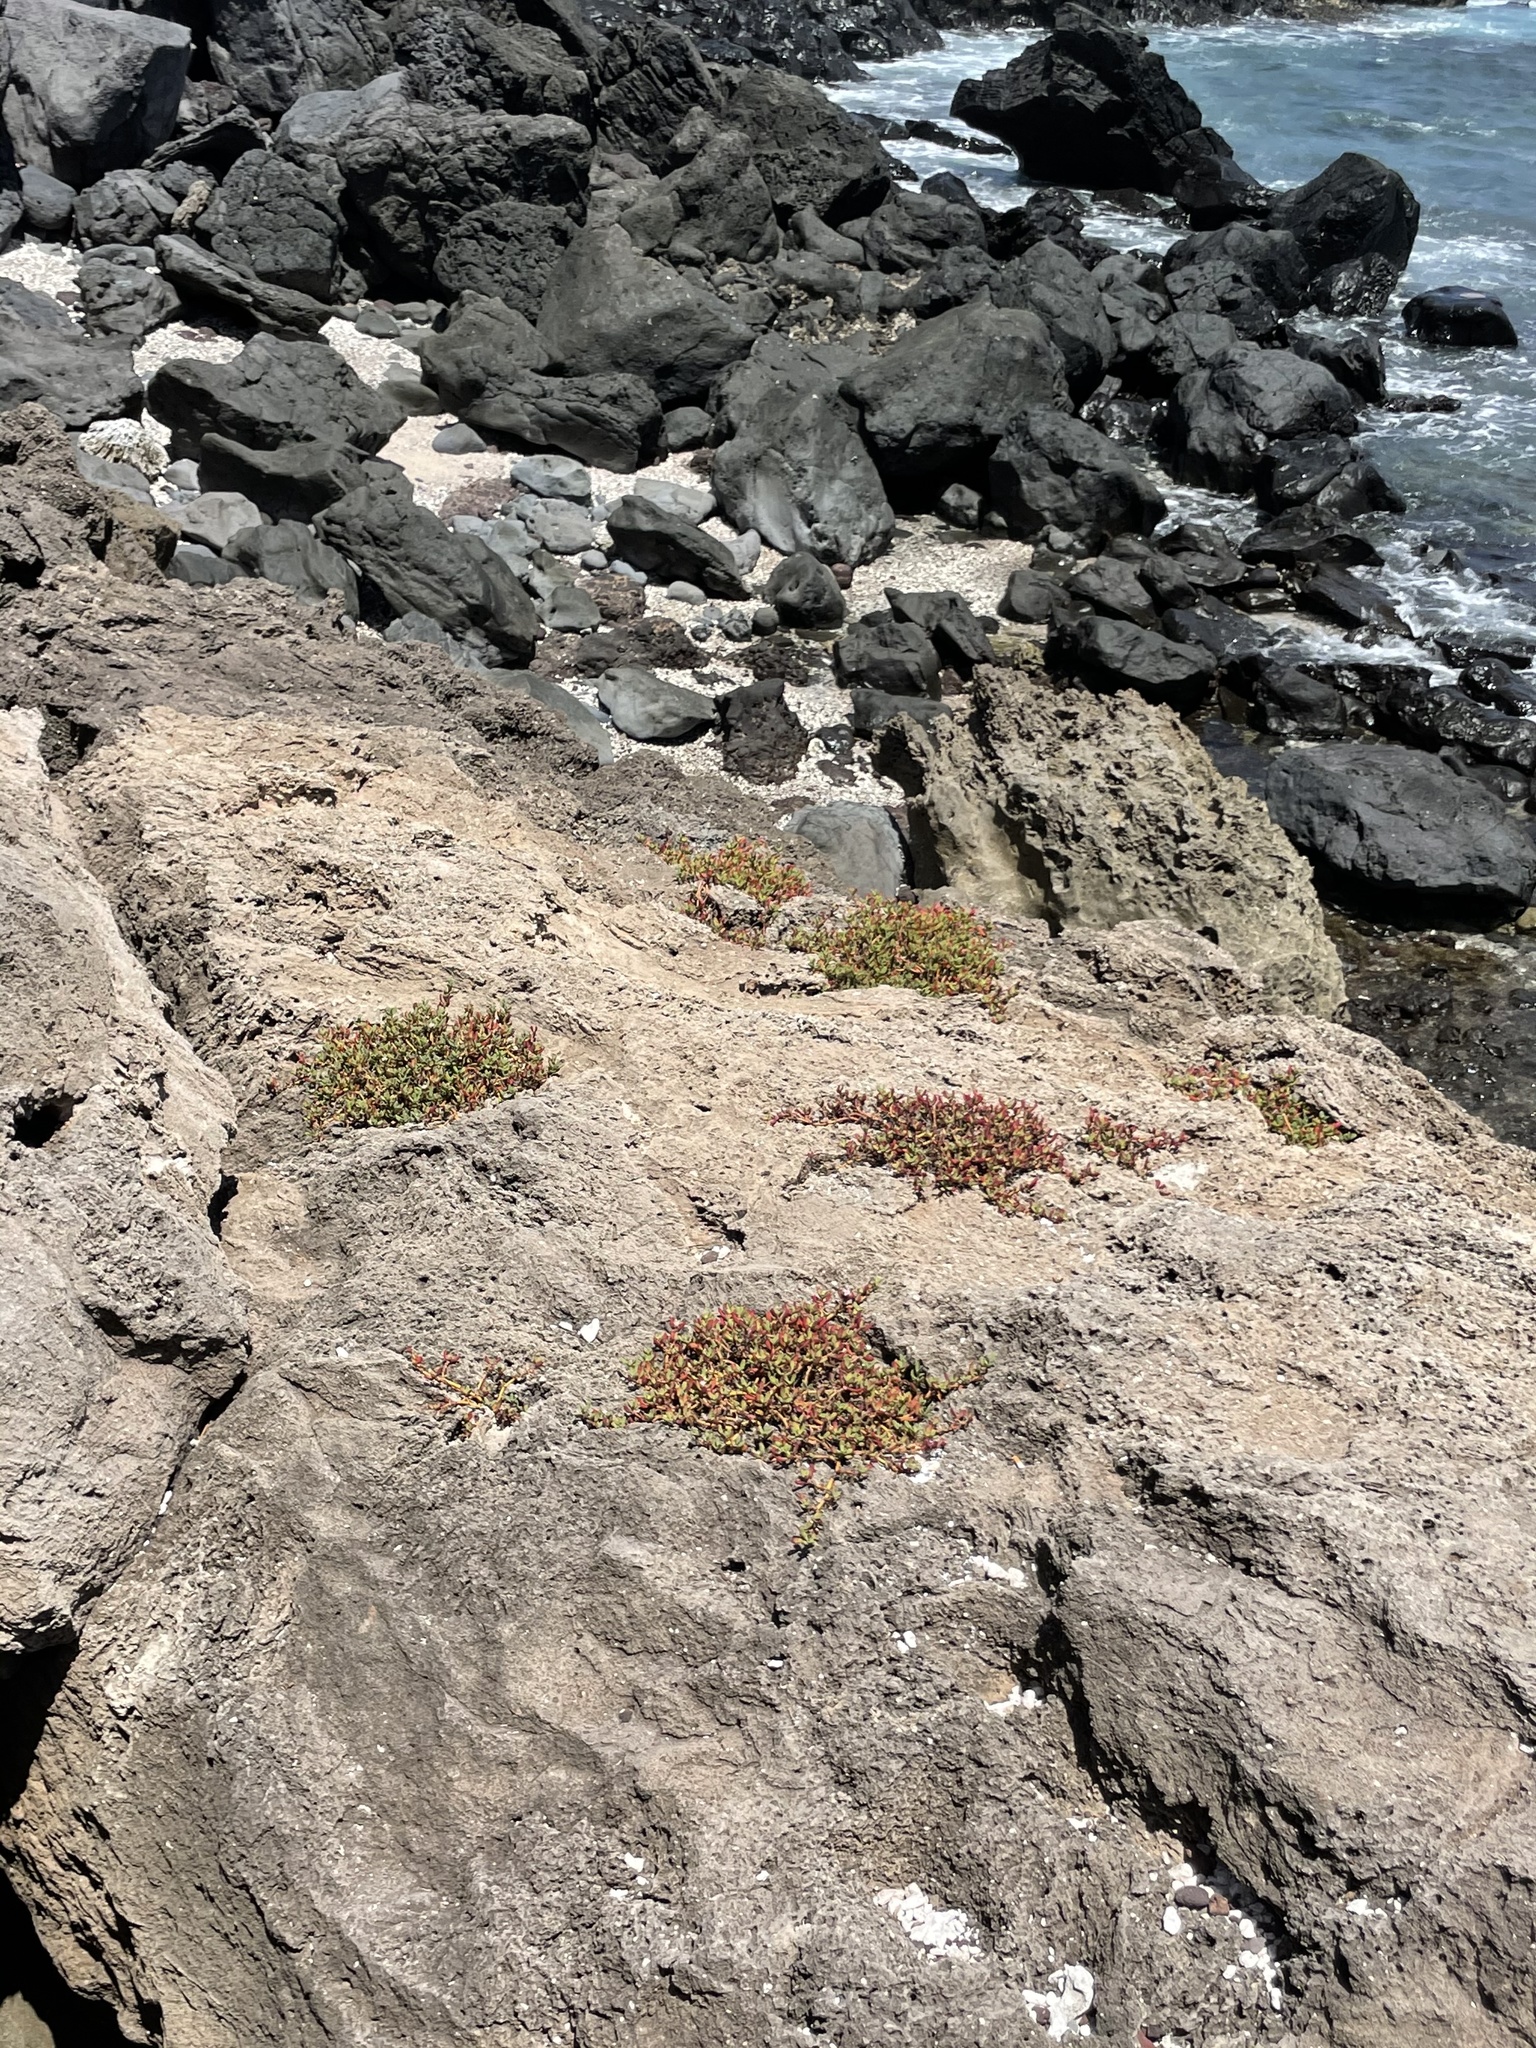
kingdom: Plantae
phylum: Tracheophyta
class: Magnoliopsida
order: Caryophyllales
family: Aizoaceae
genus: Sesuvium
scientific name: Sesuvium portulacastrum
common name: Sea-purslane
